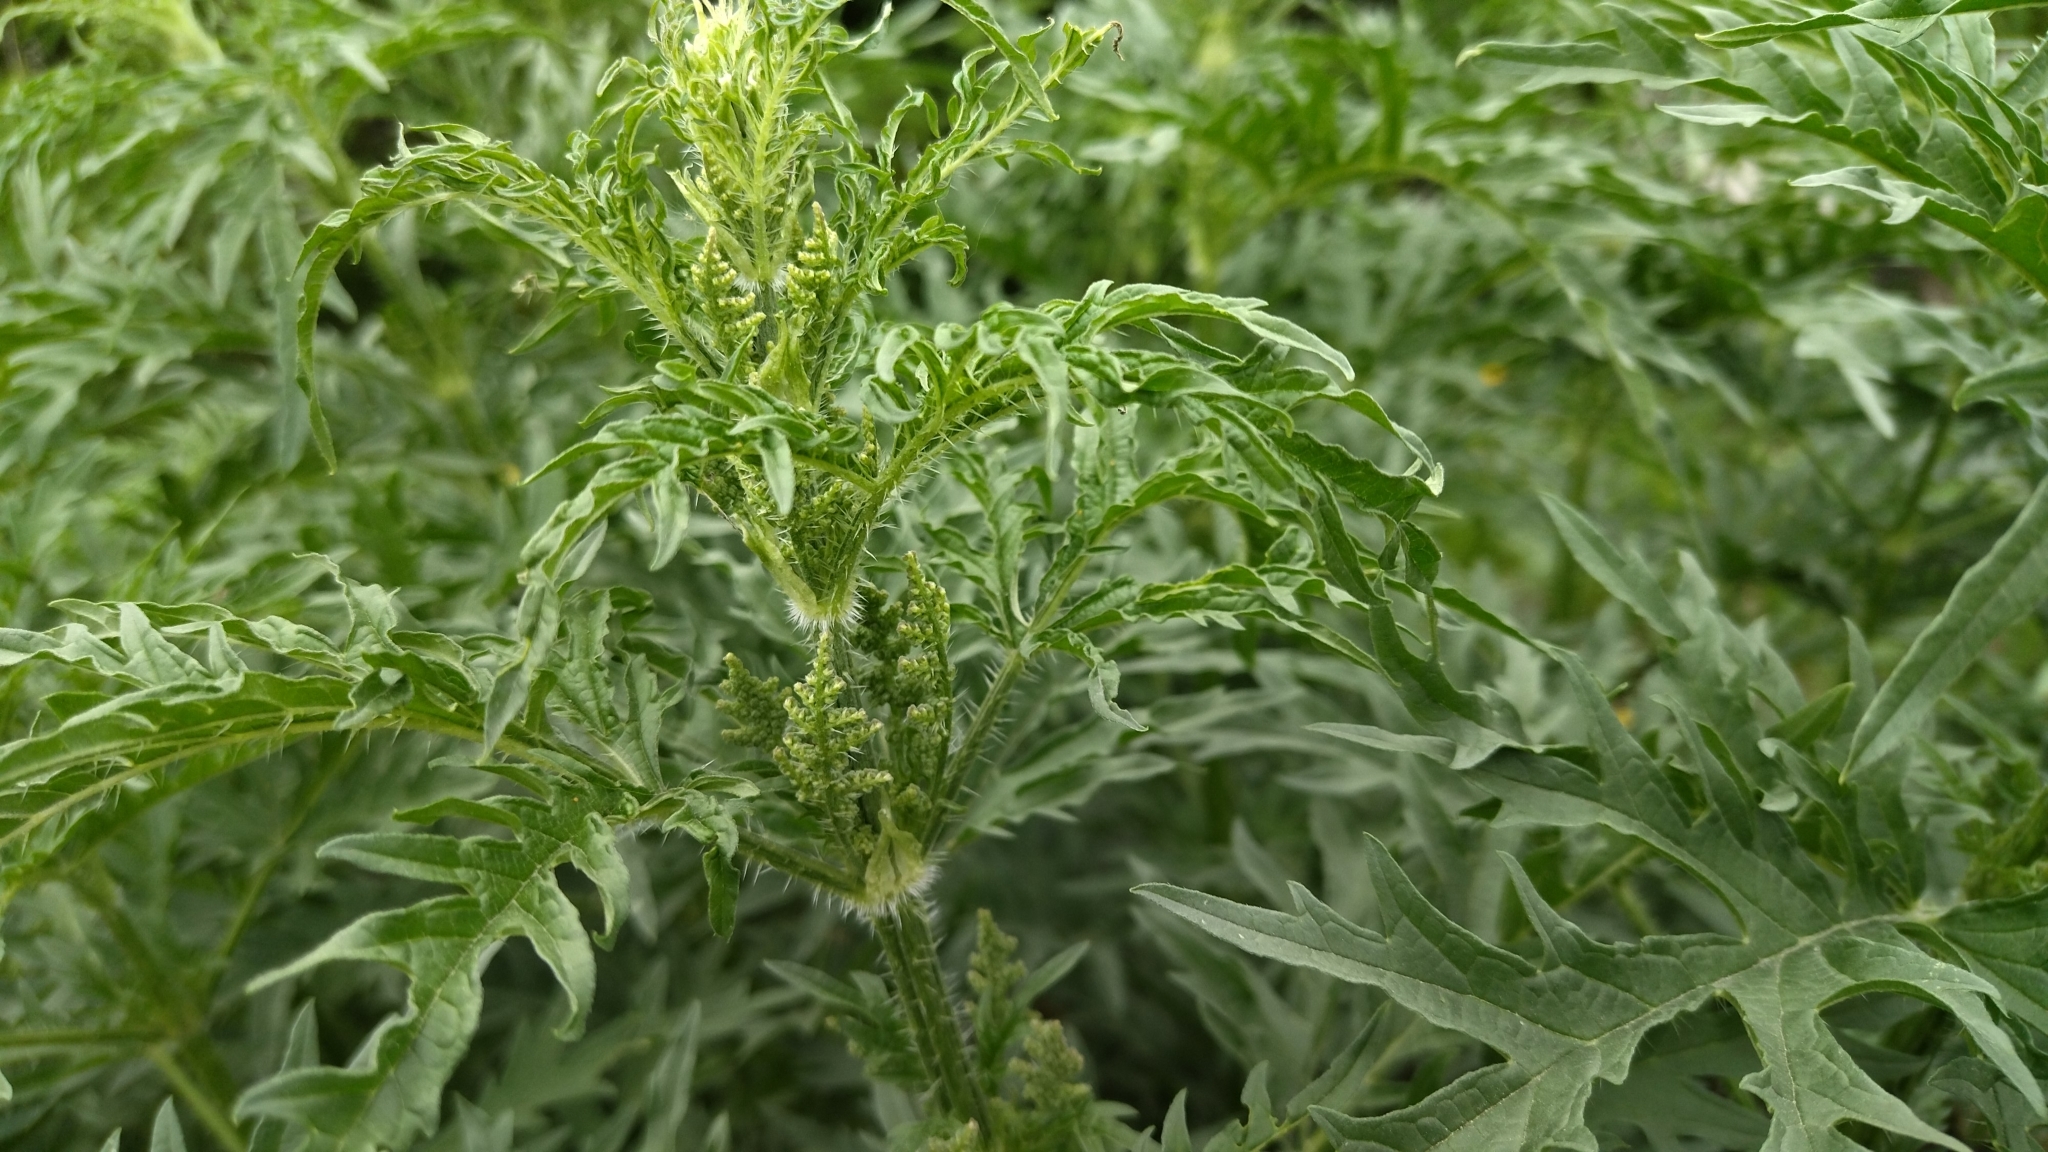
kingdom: Plantae
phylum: Tracheophyta
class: Magnoliopsida
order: Rosales
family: Urticaceae
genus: Urtica
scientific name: Urtica cannabina
